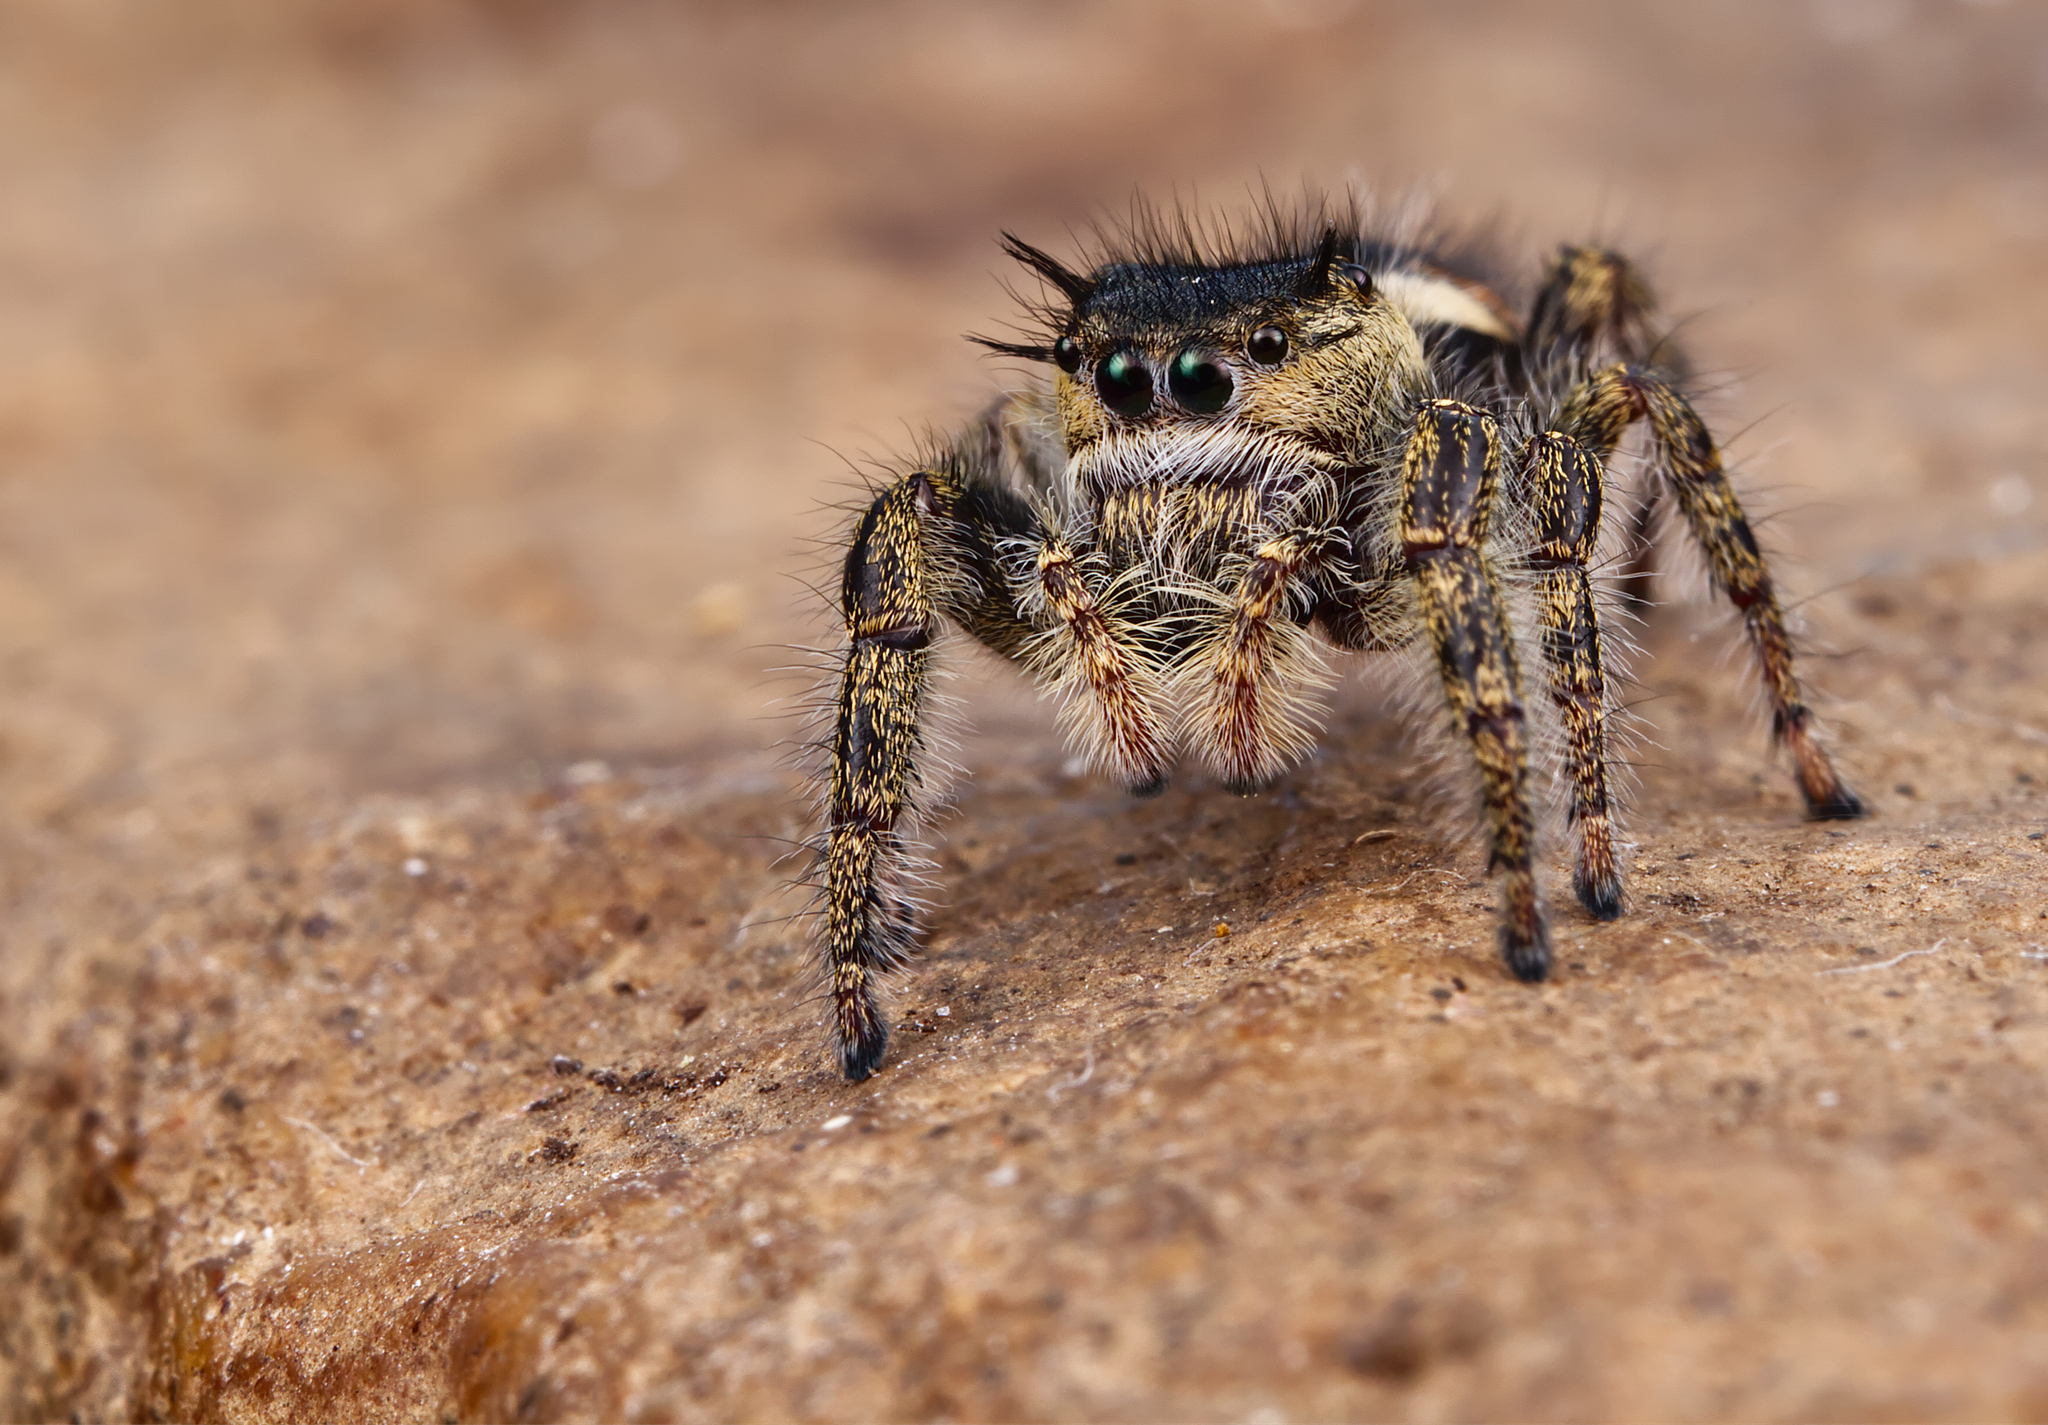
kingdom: Animalia
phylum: Arthropoda
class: Arachnida
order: Araneae
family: Salticidae
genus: Phidippus
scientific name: Phidippus insignarius
